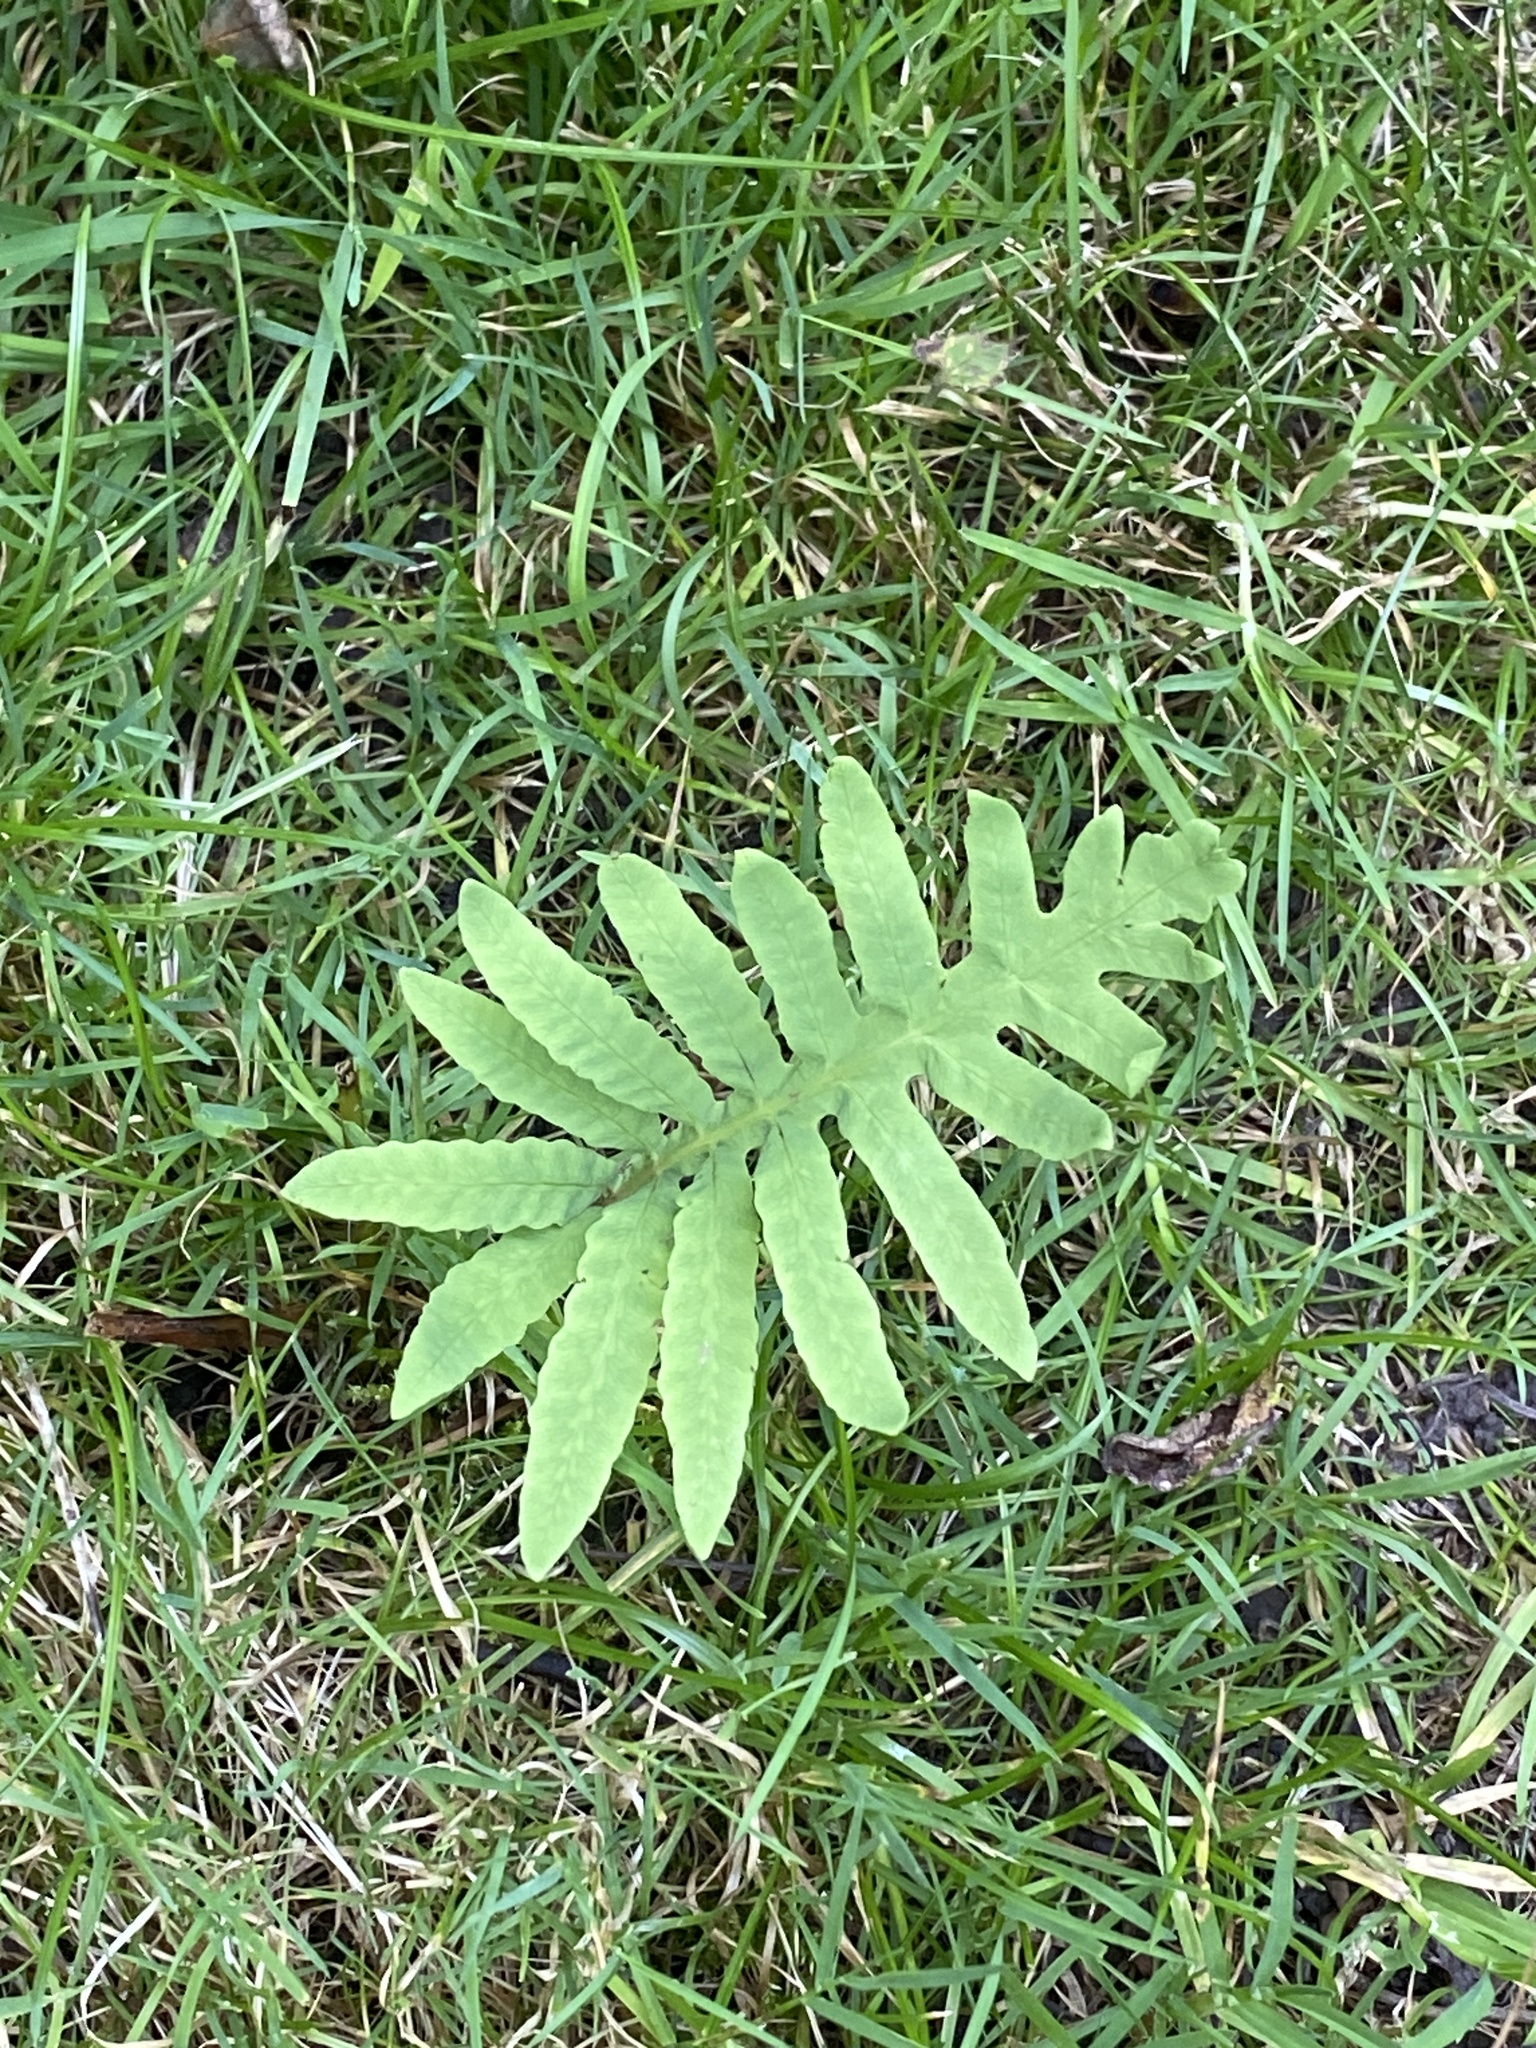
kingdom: Plantae
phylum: Tracheophyta
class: Polypodiopsida
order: Polypodiales
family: Onocleaceae
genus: Onoclea
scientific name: Onoclea sensibilis
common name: Sensitive fern
